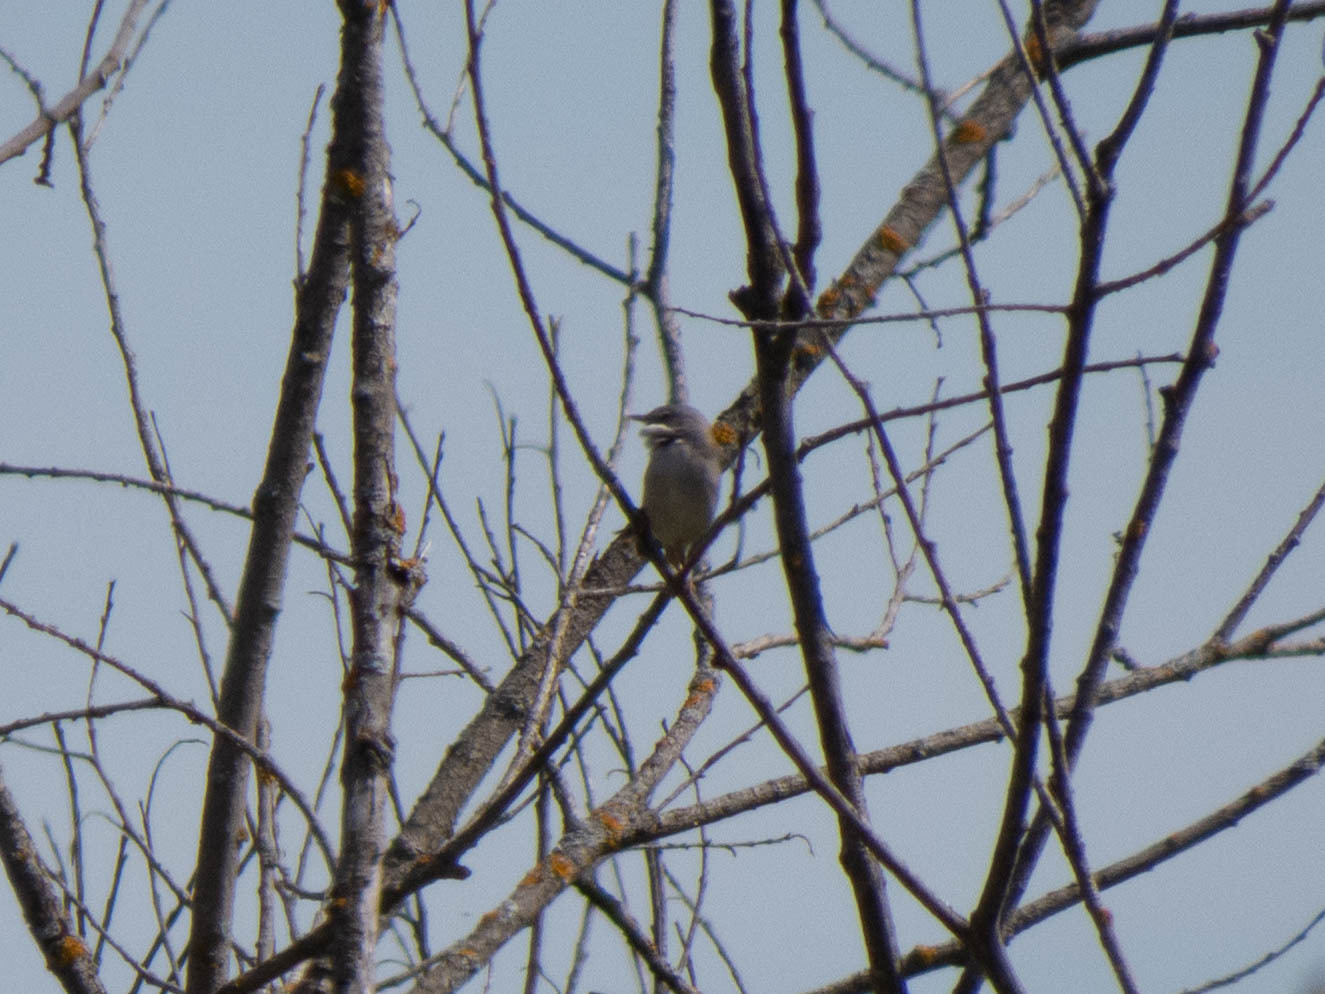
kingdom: Animalia
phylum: Chordata
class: Aves
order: Passeriformes
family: Sylviidae
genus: Sylvia
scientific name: Sylvia communis
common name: Common whitethroat
